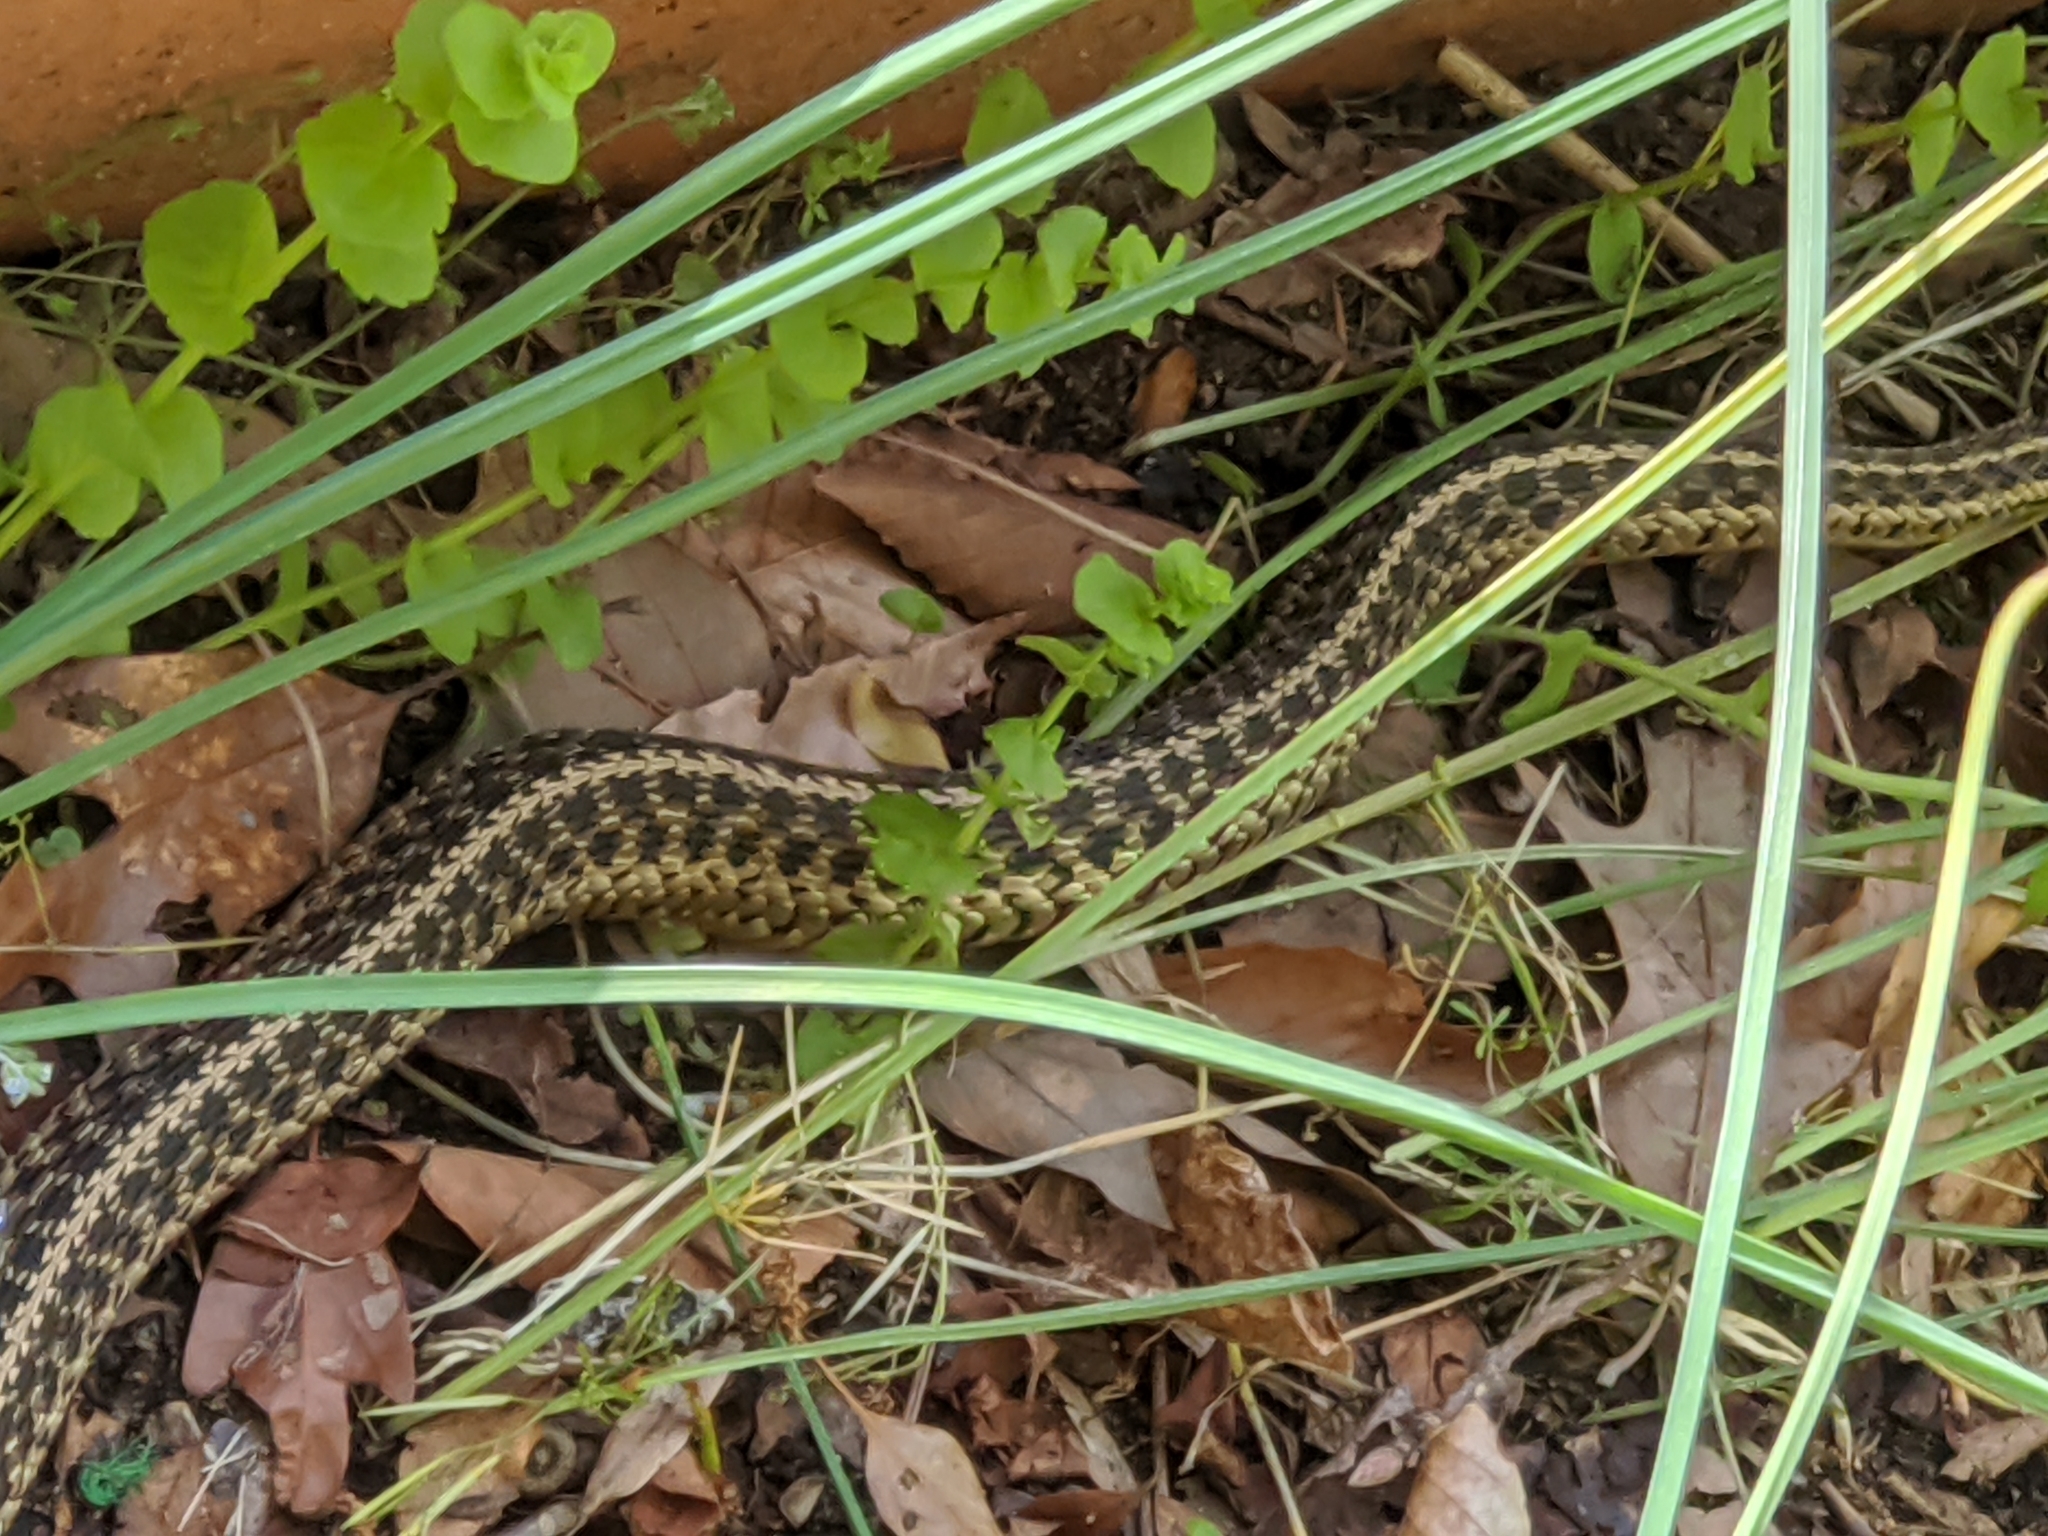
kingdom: Animalia
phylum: Chordata
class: Squamata
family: Colubridae
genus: Thamnophis
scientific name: Thamnophis sirtalis
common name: Common garter snake
